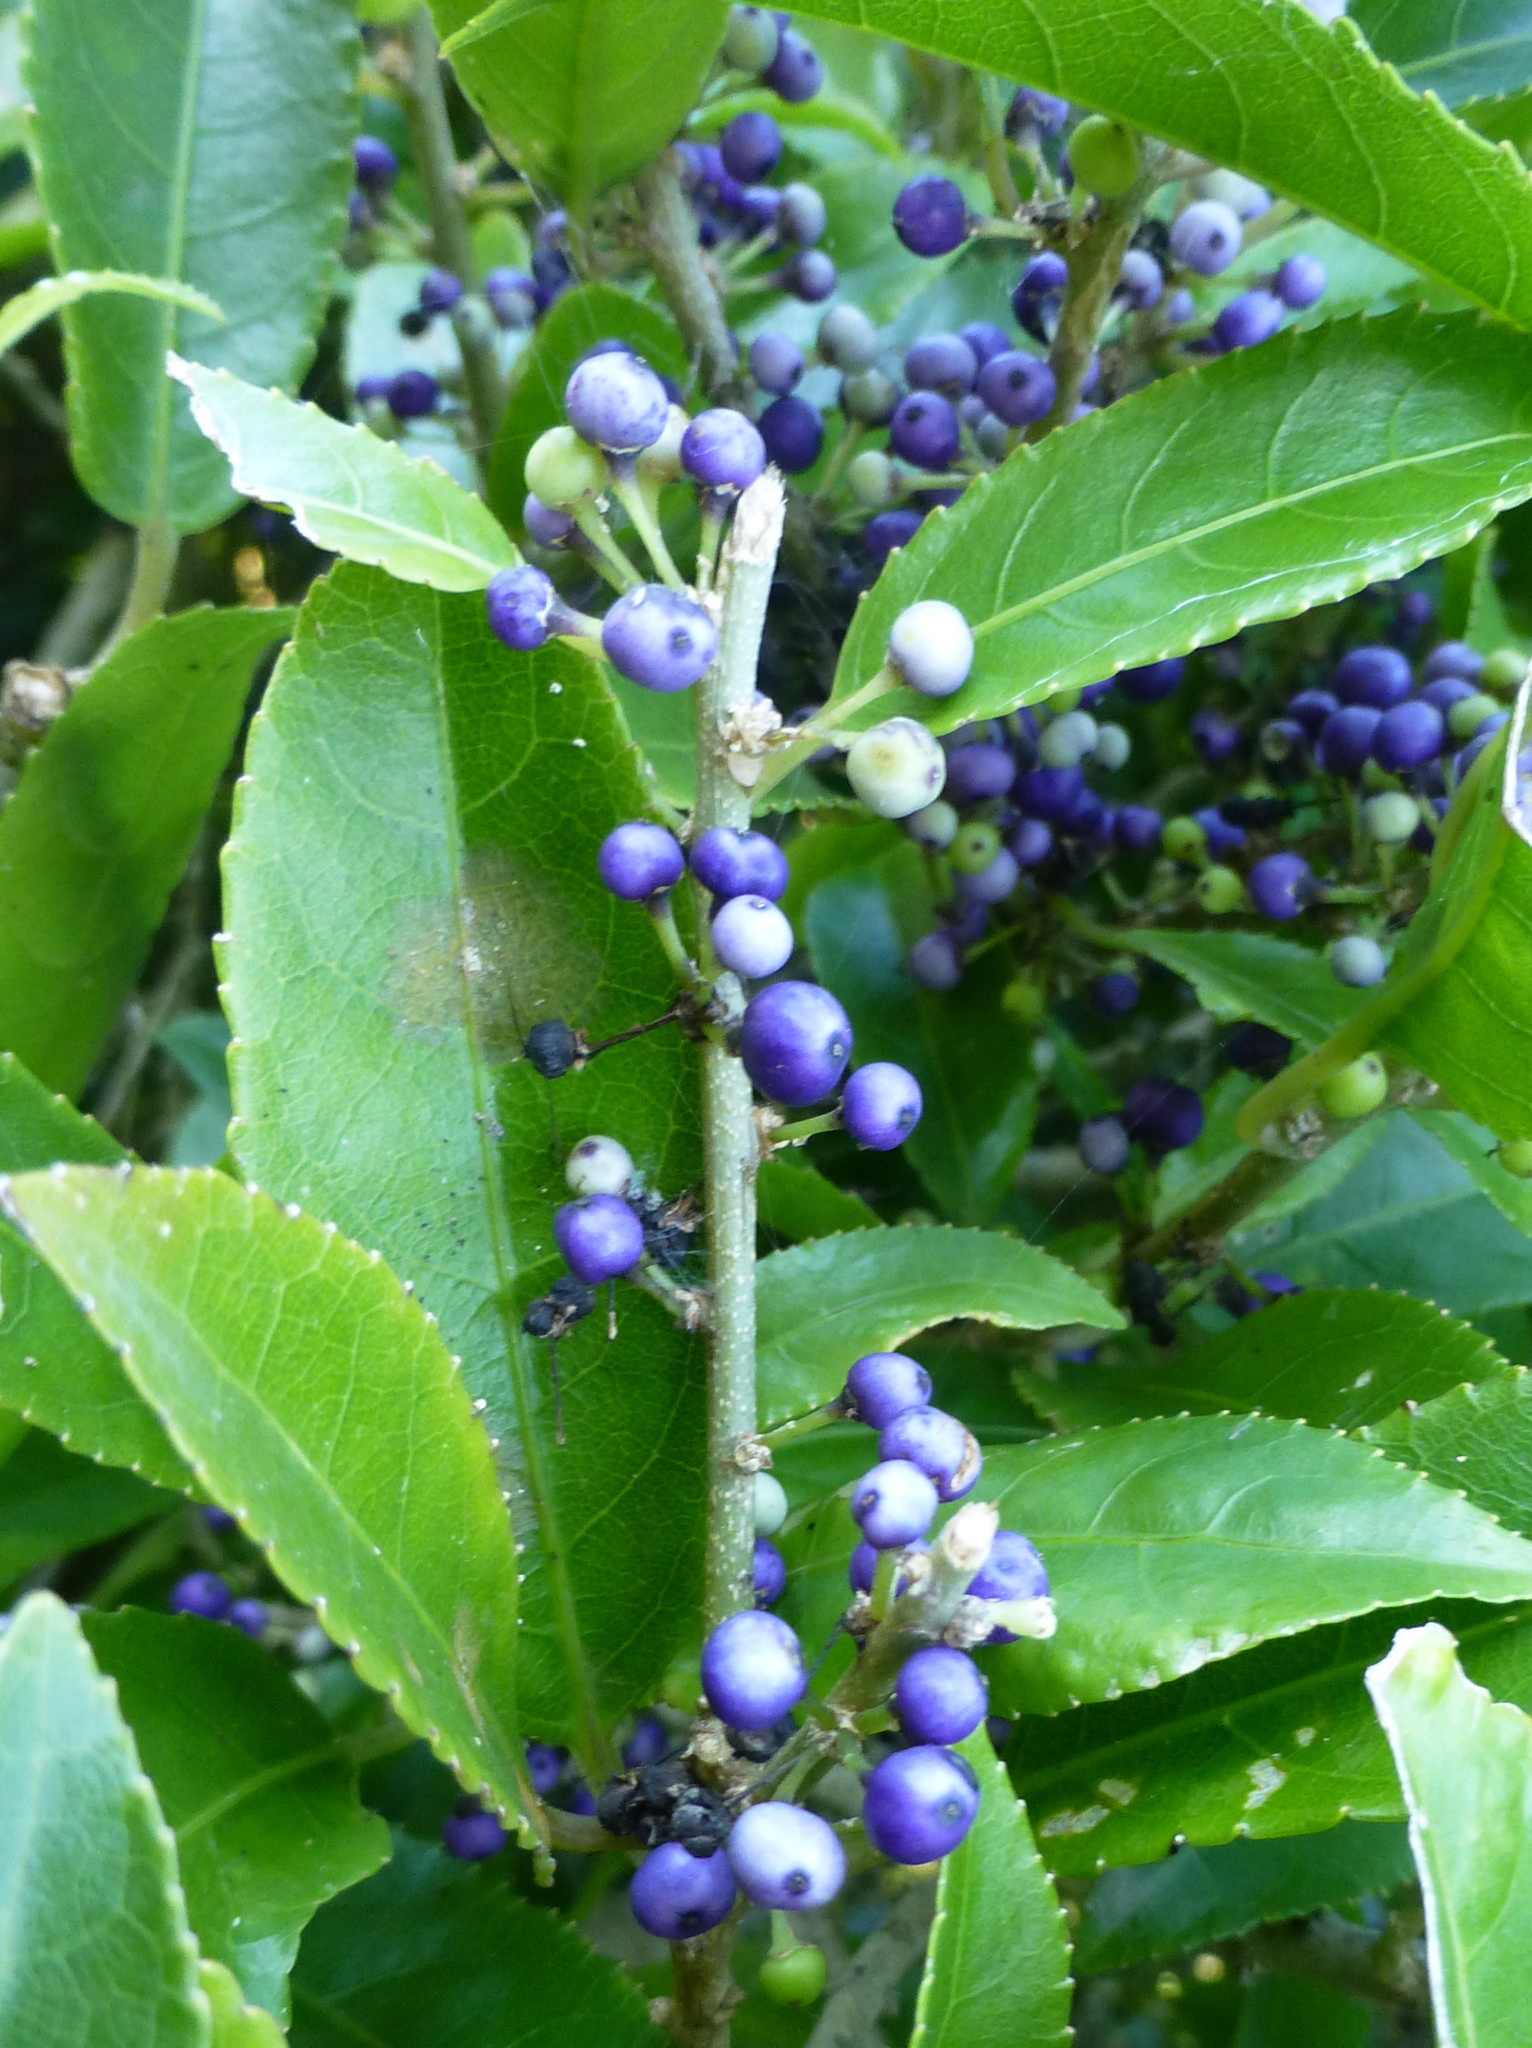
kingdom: Plantae
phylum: Tracheophyta
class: Magnoliopsida
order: Malpighiales
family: Violaceae
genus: Melicytus
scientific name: Melicytus ramiflorus
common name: Mahoe
